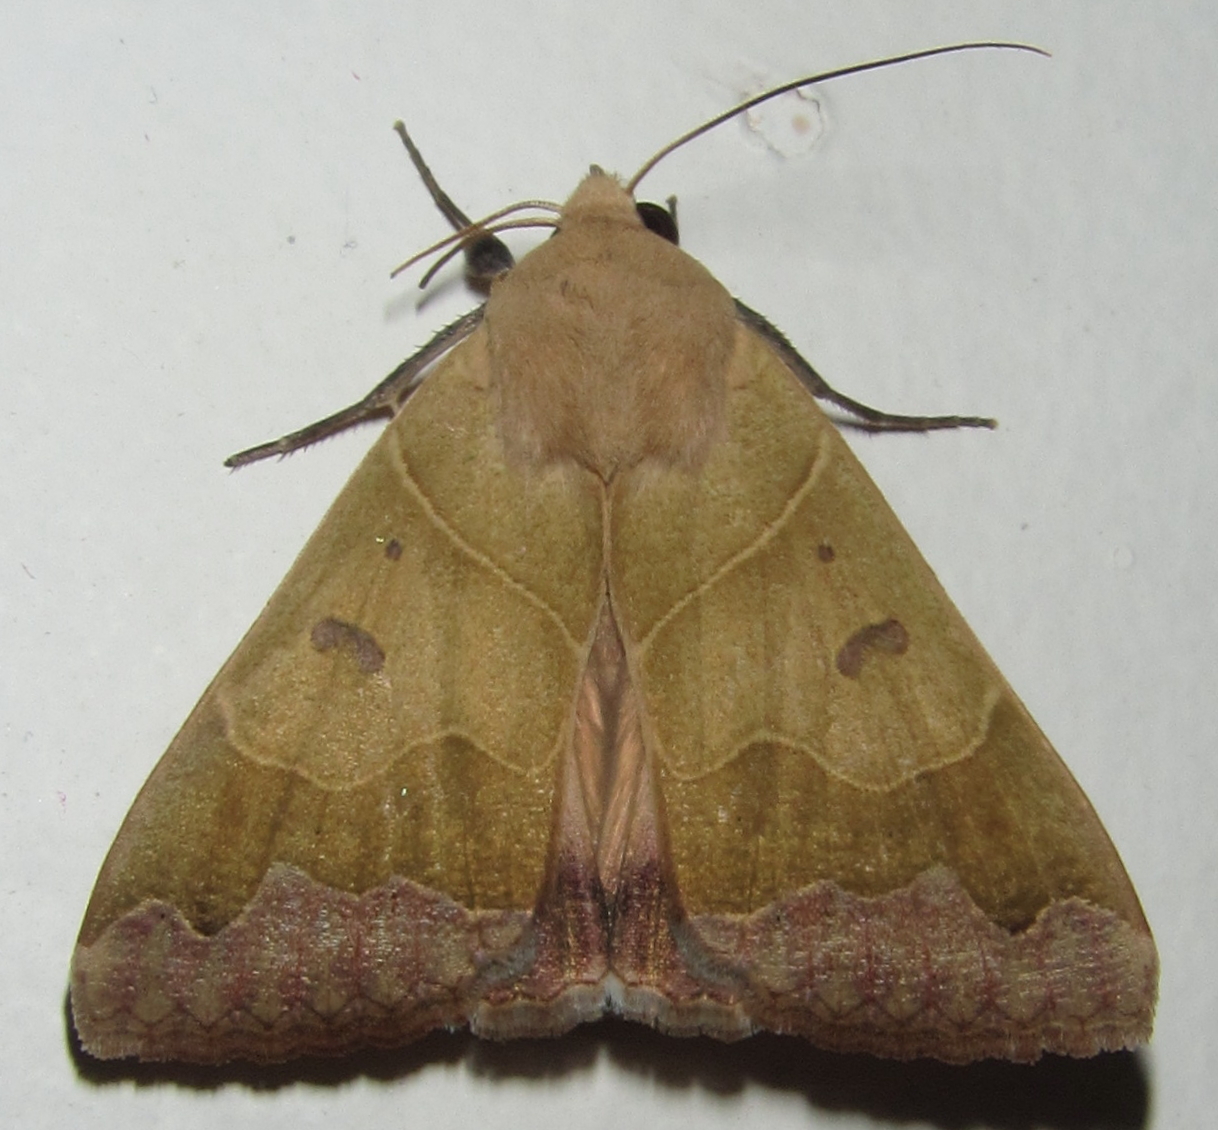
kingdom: Animalia
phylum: Arthropoda
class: Insecta
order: Lepidoptera
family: Erebidae
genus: Ophiusa
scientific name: Ophiusa mejanesi
